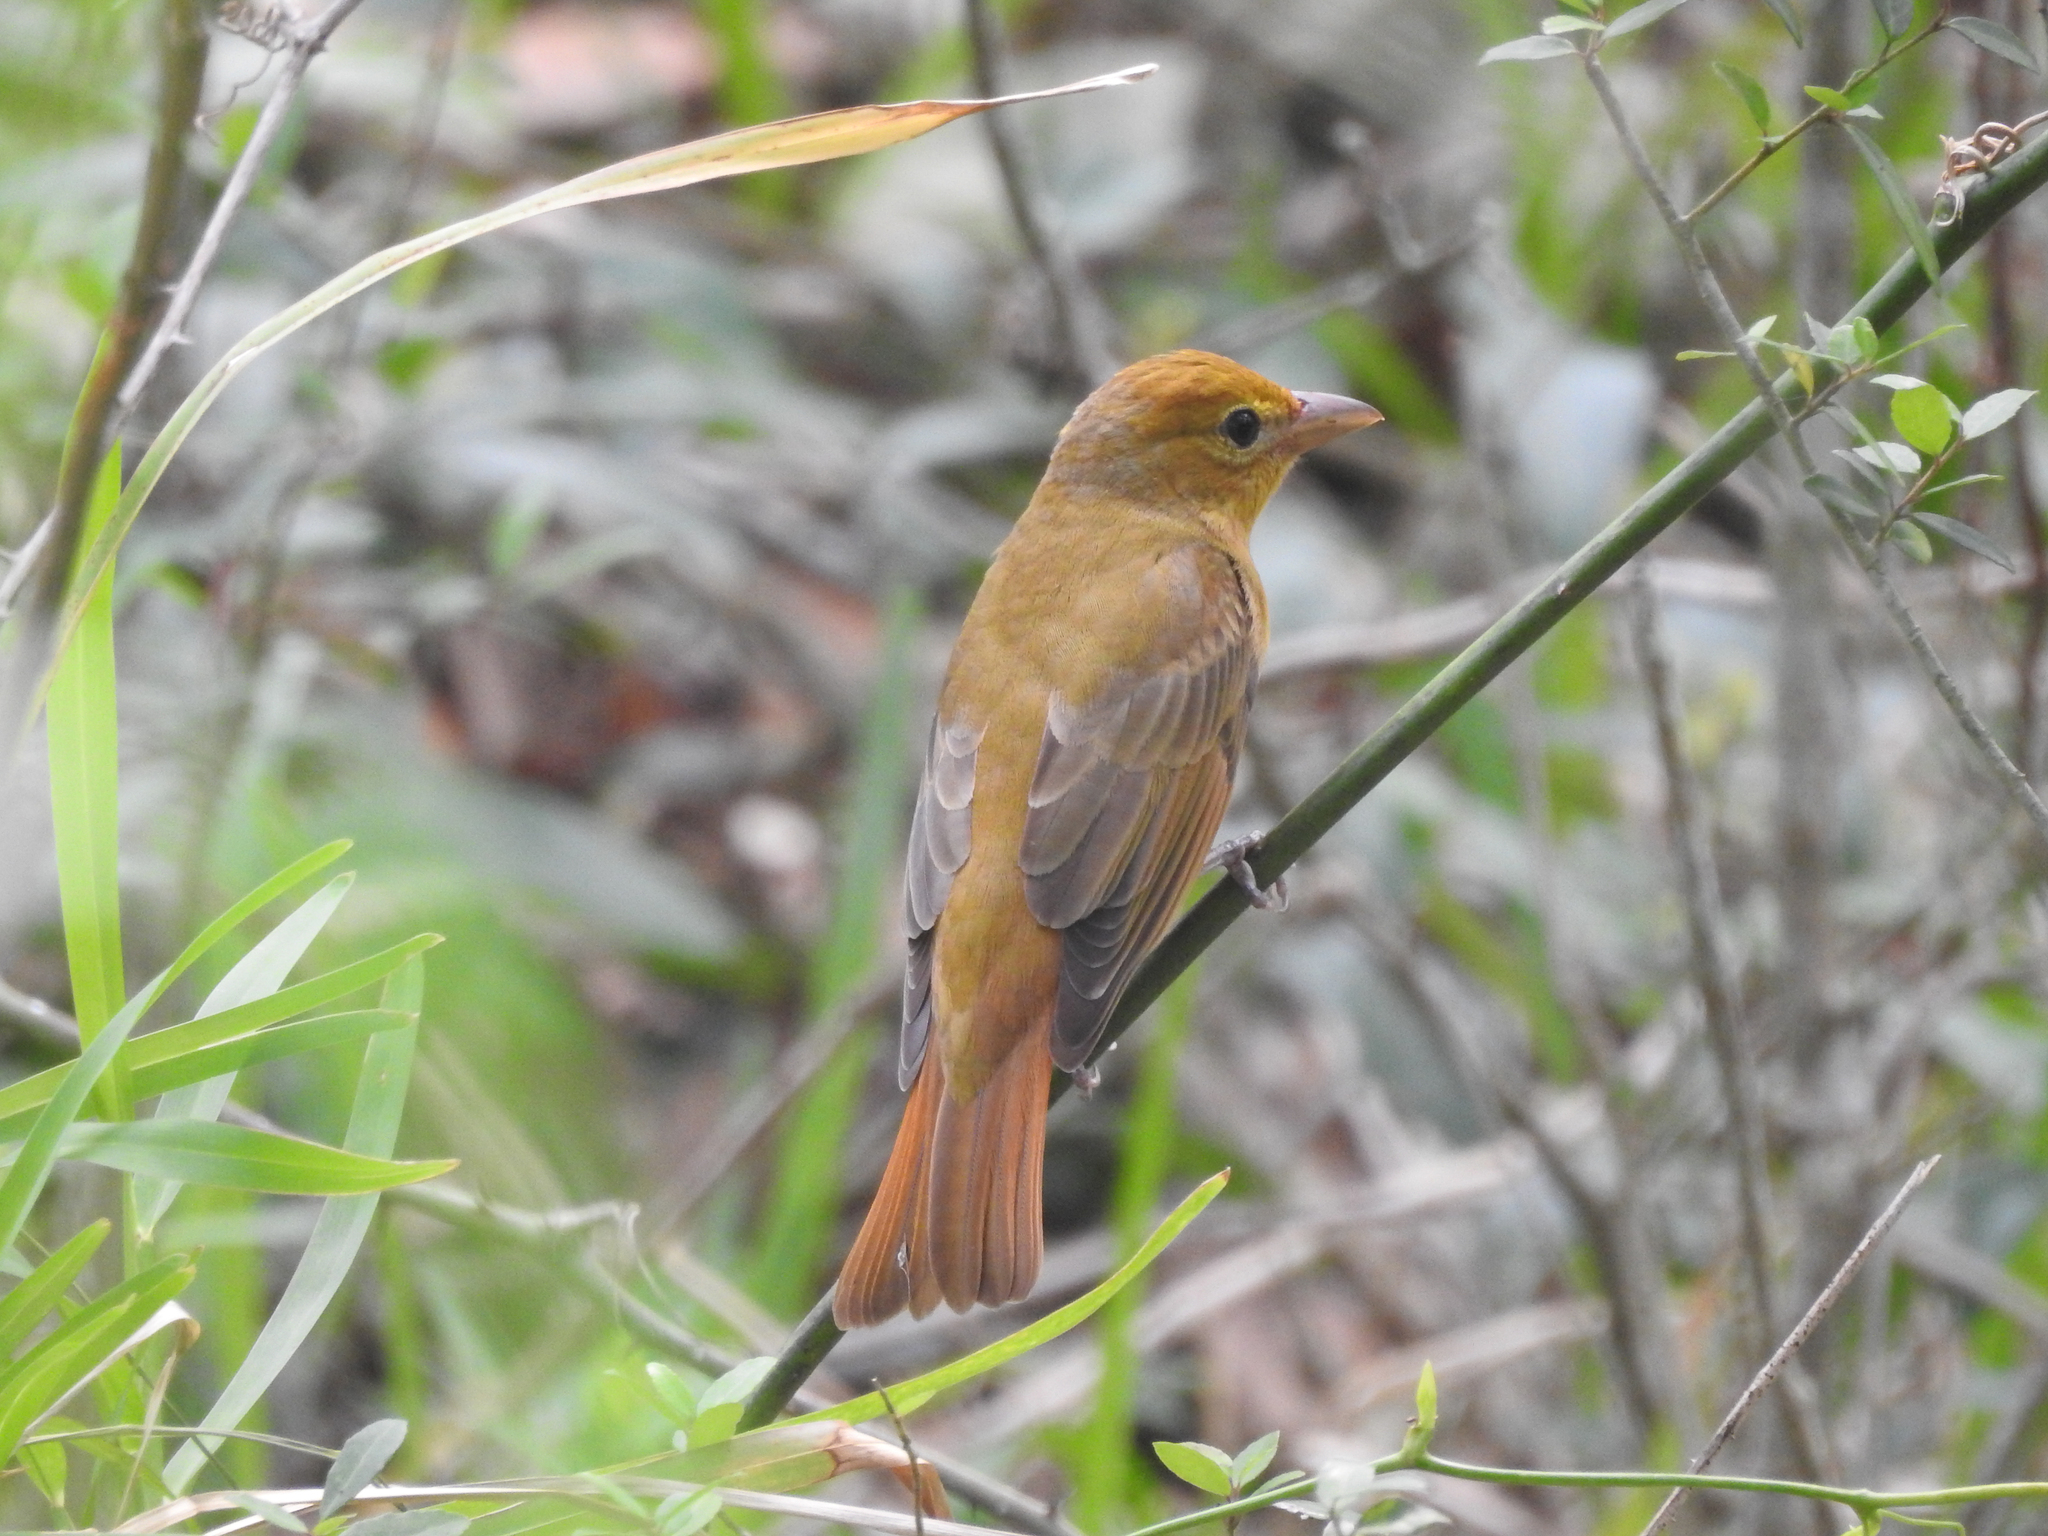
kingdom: Animalia
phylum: Chordata
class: Aves
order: Passeriformes
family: Cardinalidae
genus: Piranga
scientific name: Piranga rubra
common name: Summer tanager
